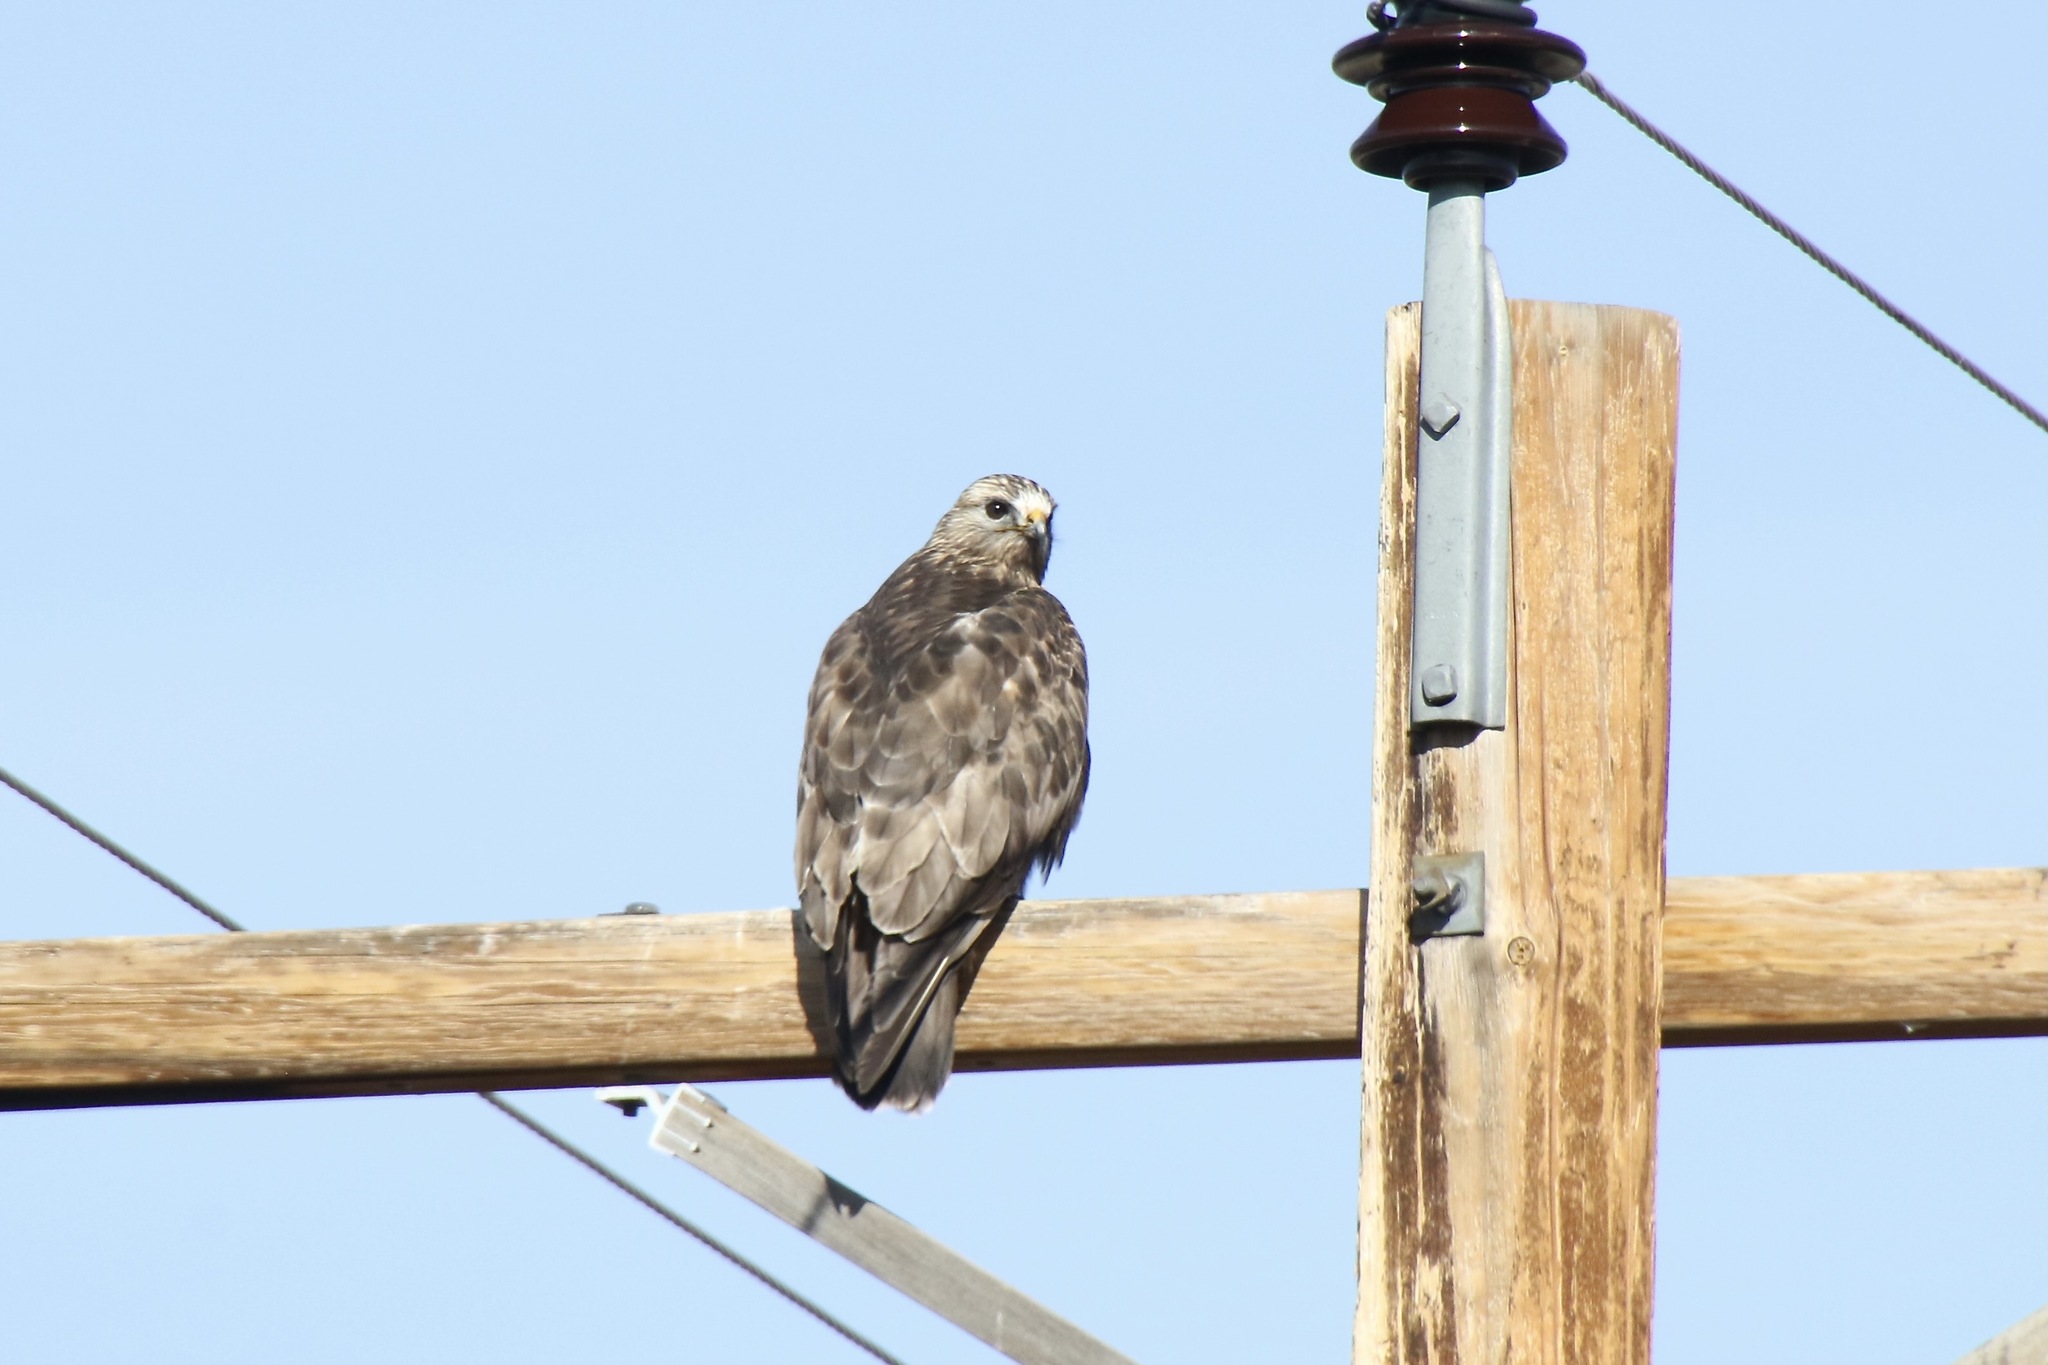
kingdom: Animalia
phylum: Chordata
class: Aves
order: Accipitriformes
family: Accipitridae
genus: Buteo
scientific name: Buteo lagopus
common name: Rough-legged buzzard
